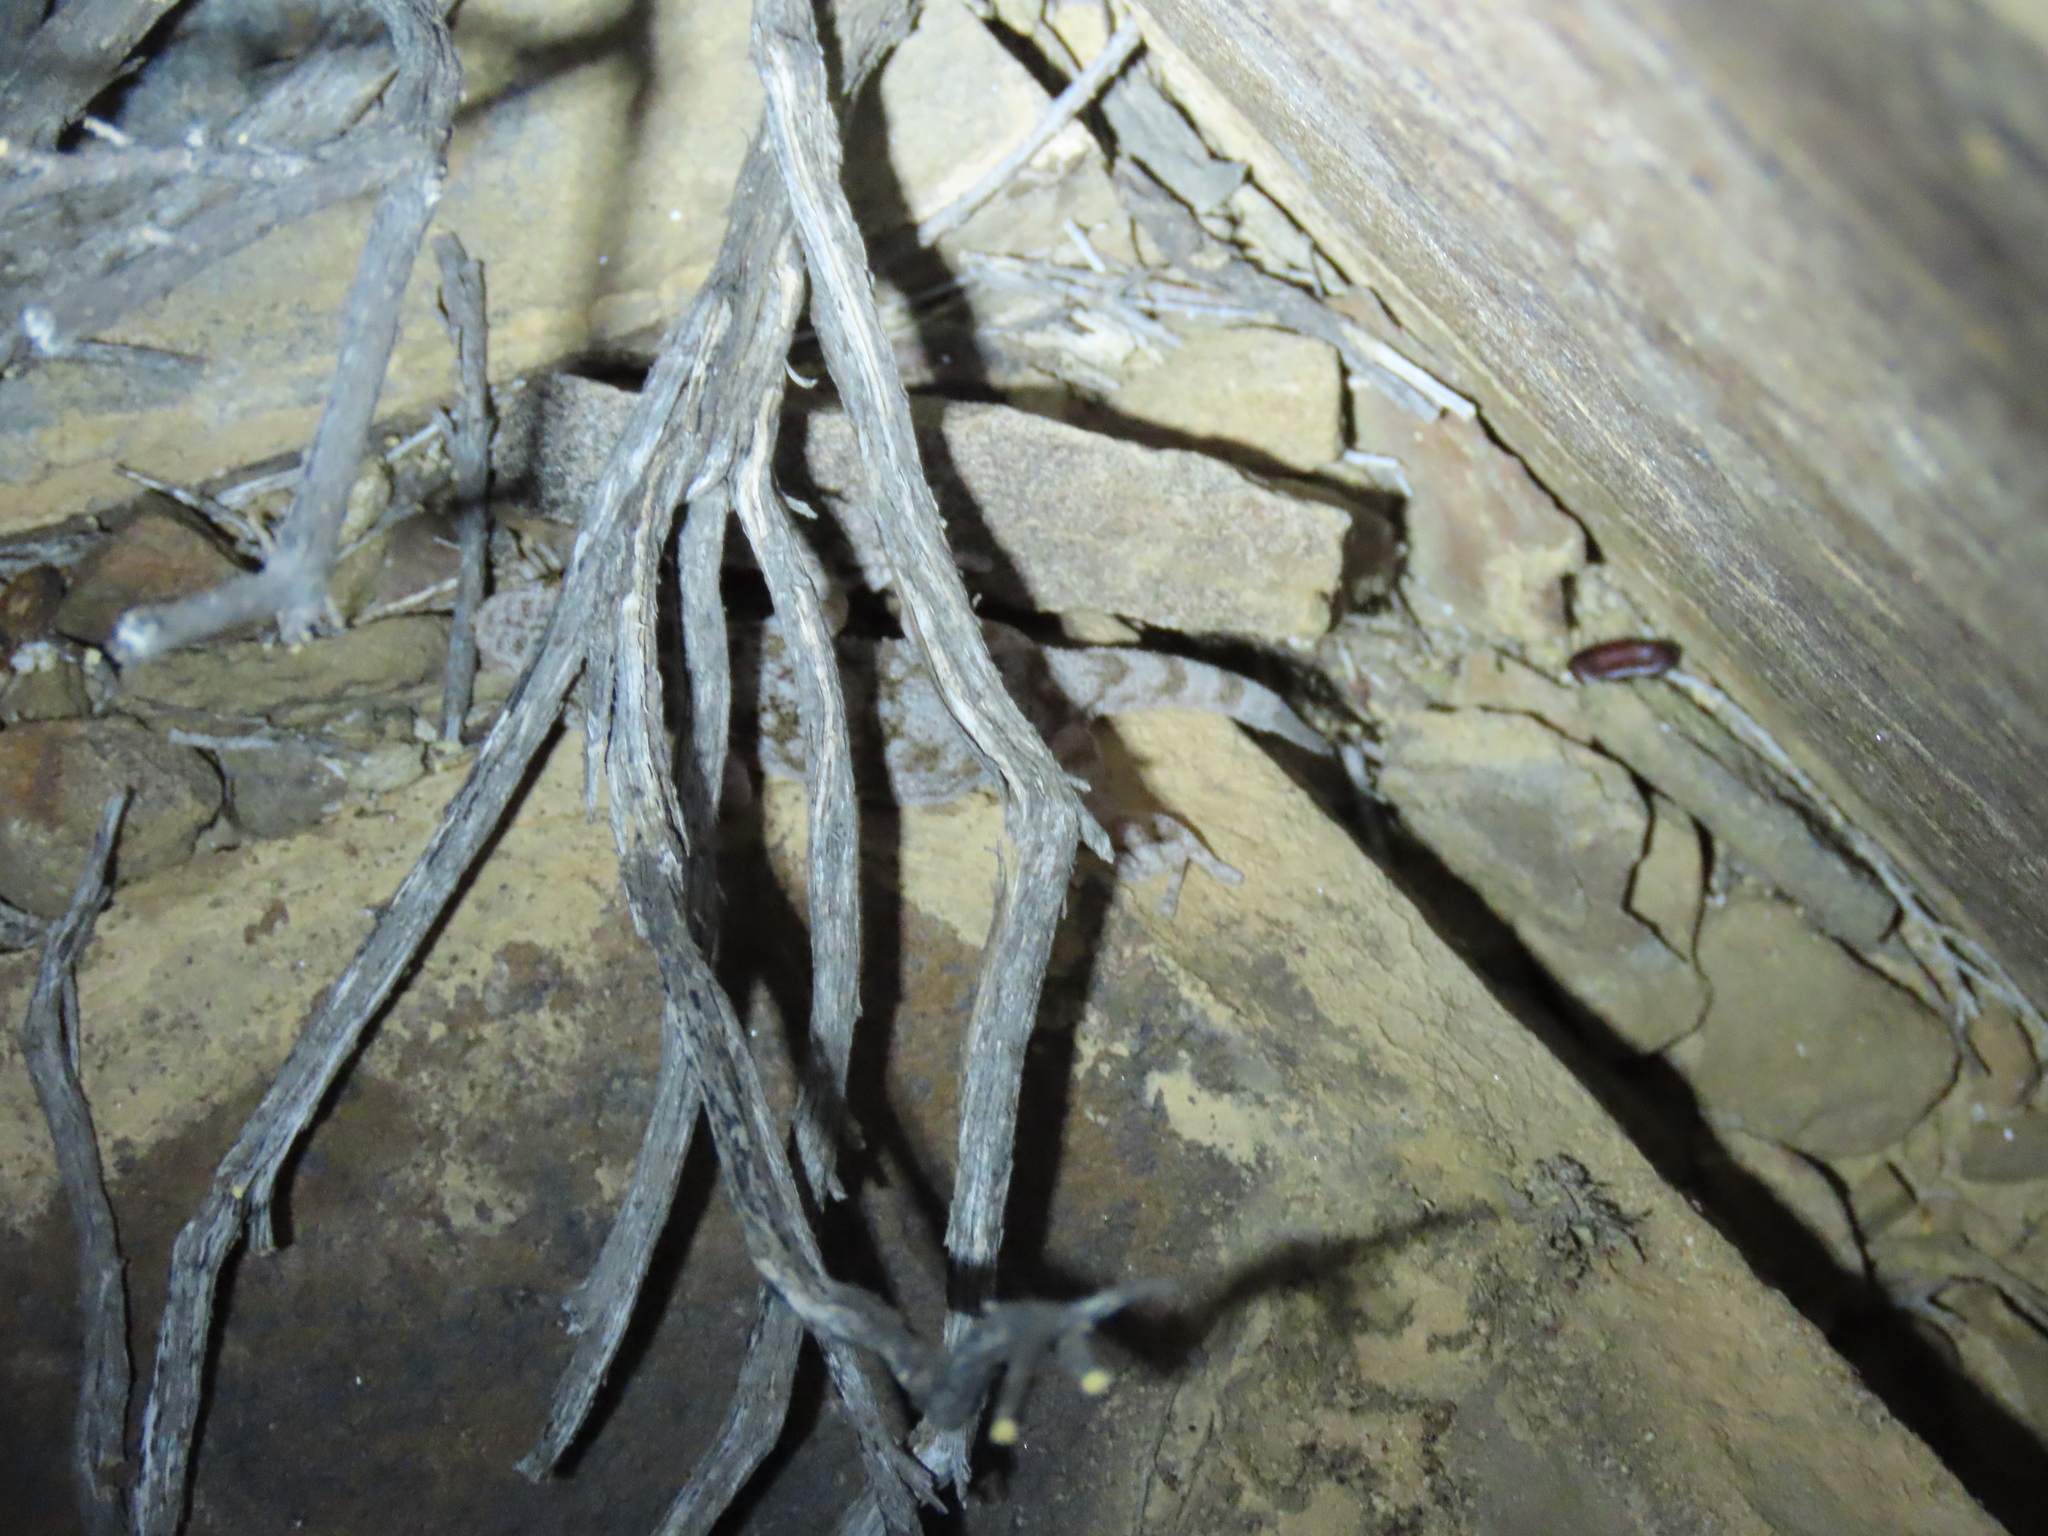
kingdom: Animalia
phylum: Chordata
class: Squamata
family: Gekkonidae
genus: Pachydactylus
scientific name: Pachydactylus kladaroderma
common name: Thin-skinned gecko
